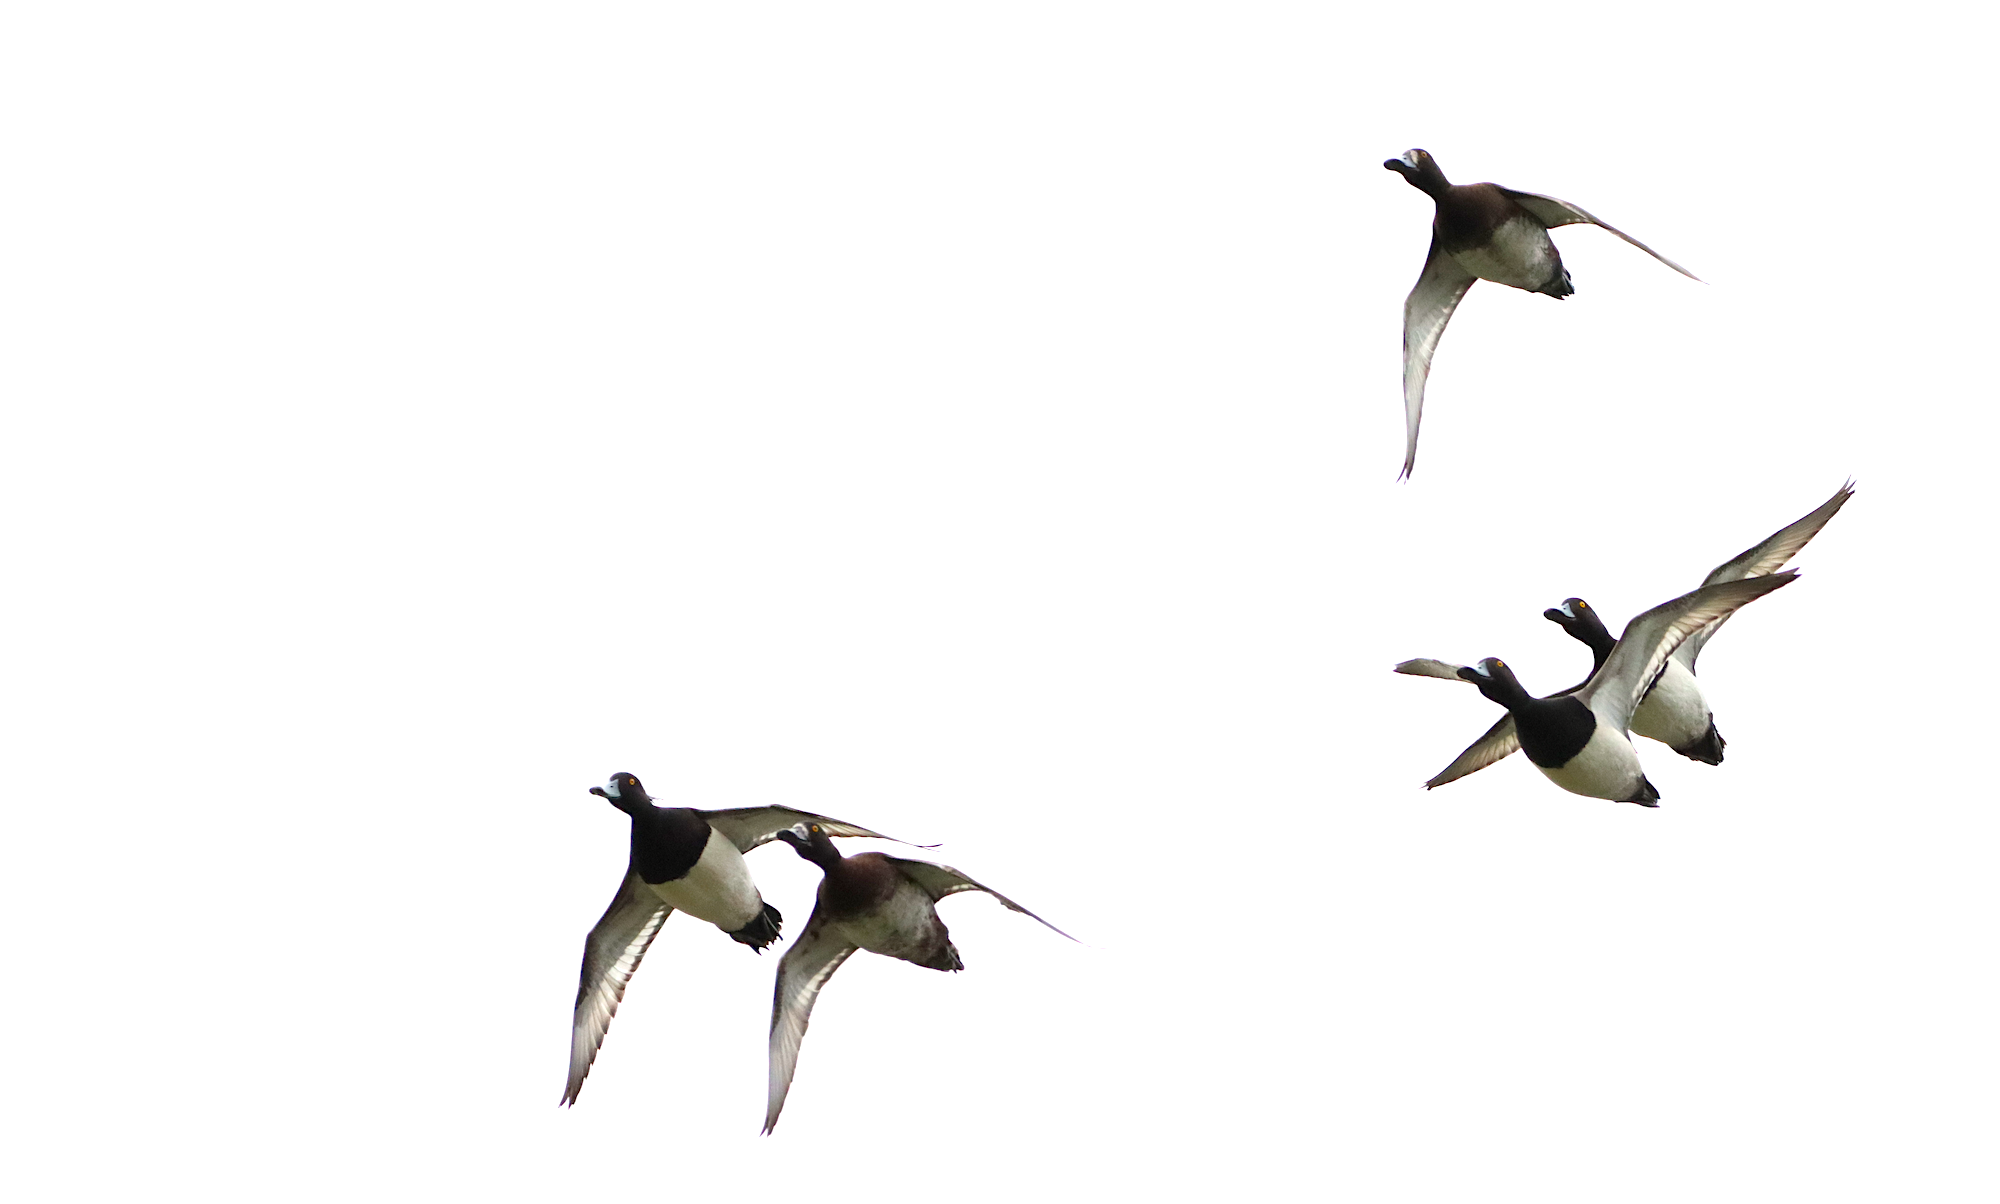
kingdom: Animalia
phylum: Chordata
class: Aves
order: Anseriformes
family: Anatidae
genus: Aythya
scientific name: Aythya fuligula
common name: Tufted duck
